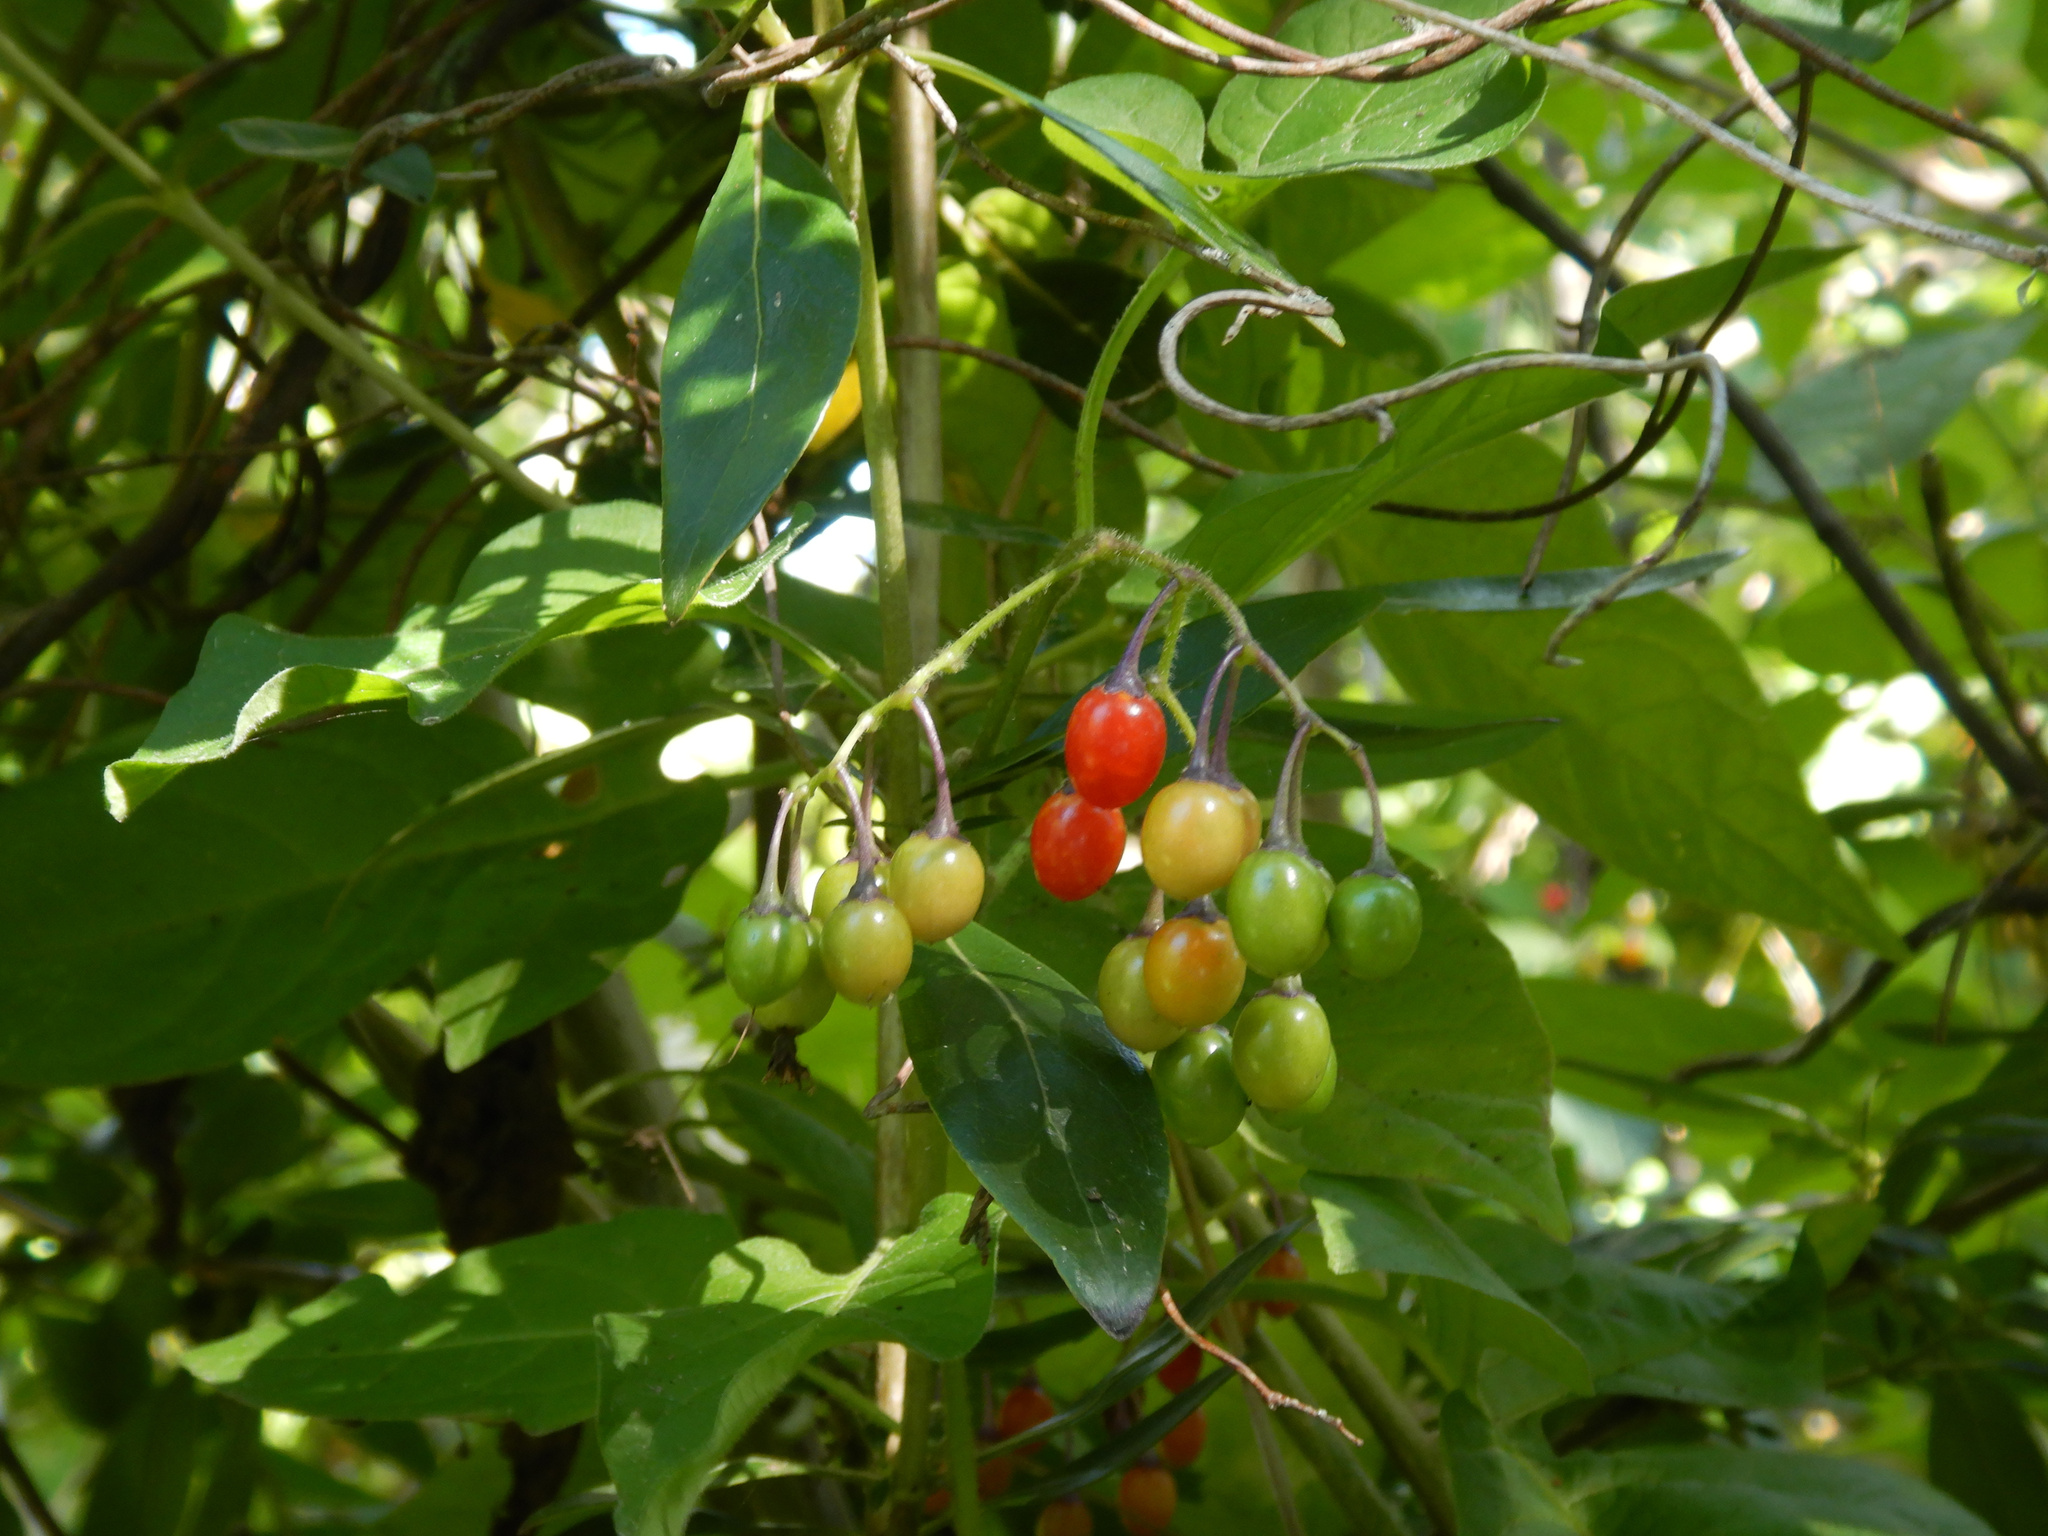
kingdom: Plantae
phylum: Tracheophyta
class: Magnoliopsida
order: Solanales
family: Solanaceae
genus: Solanum
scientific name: Solanum dulcamara
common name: Climbing nightshade
